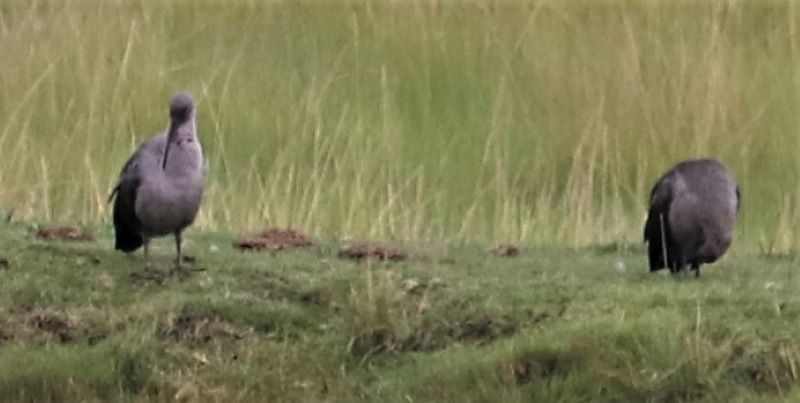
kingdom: Animalia
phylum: Chordata
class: Aves
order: Pelecaniformes
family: Threskiornithidae
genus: Bostrychia
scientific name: Bostrychia hagedash
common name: Hadada ibis
